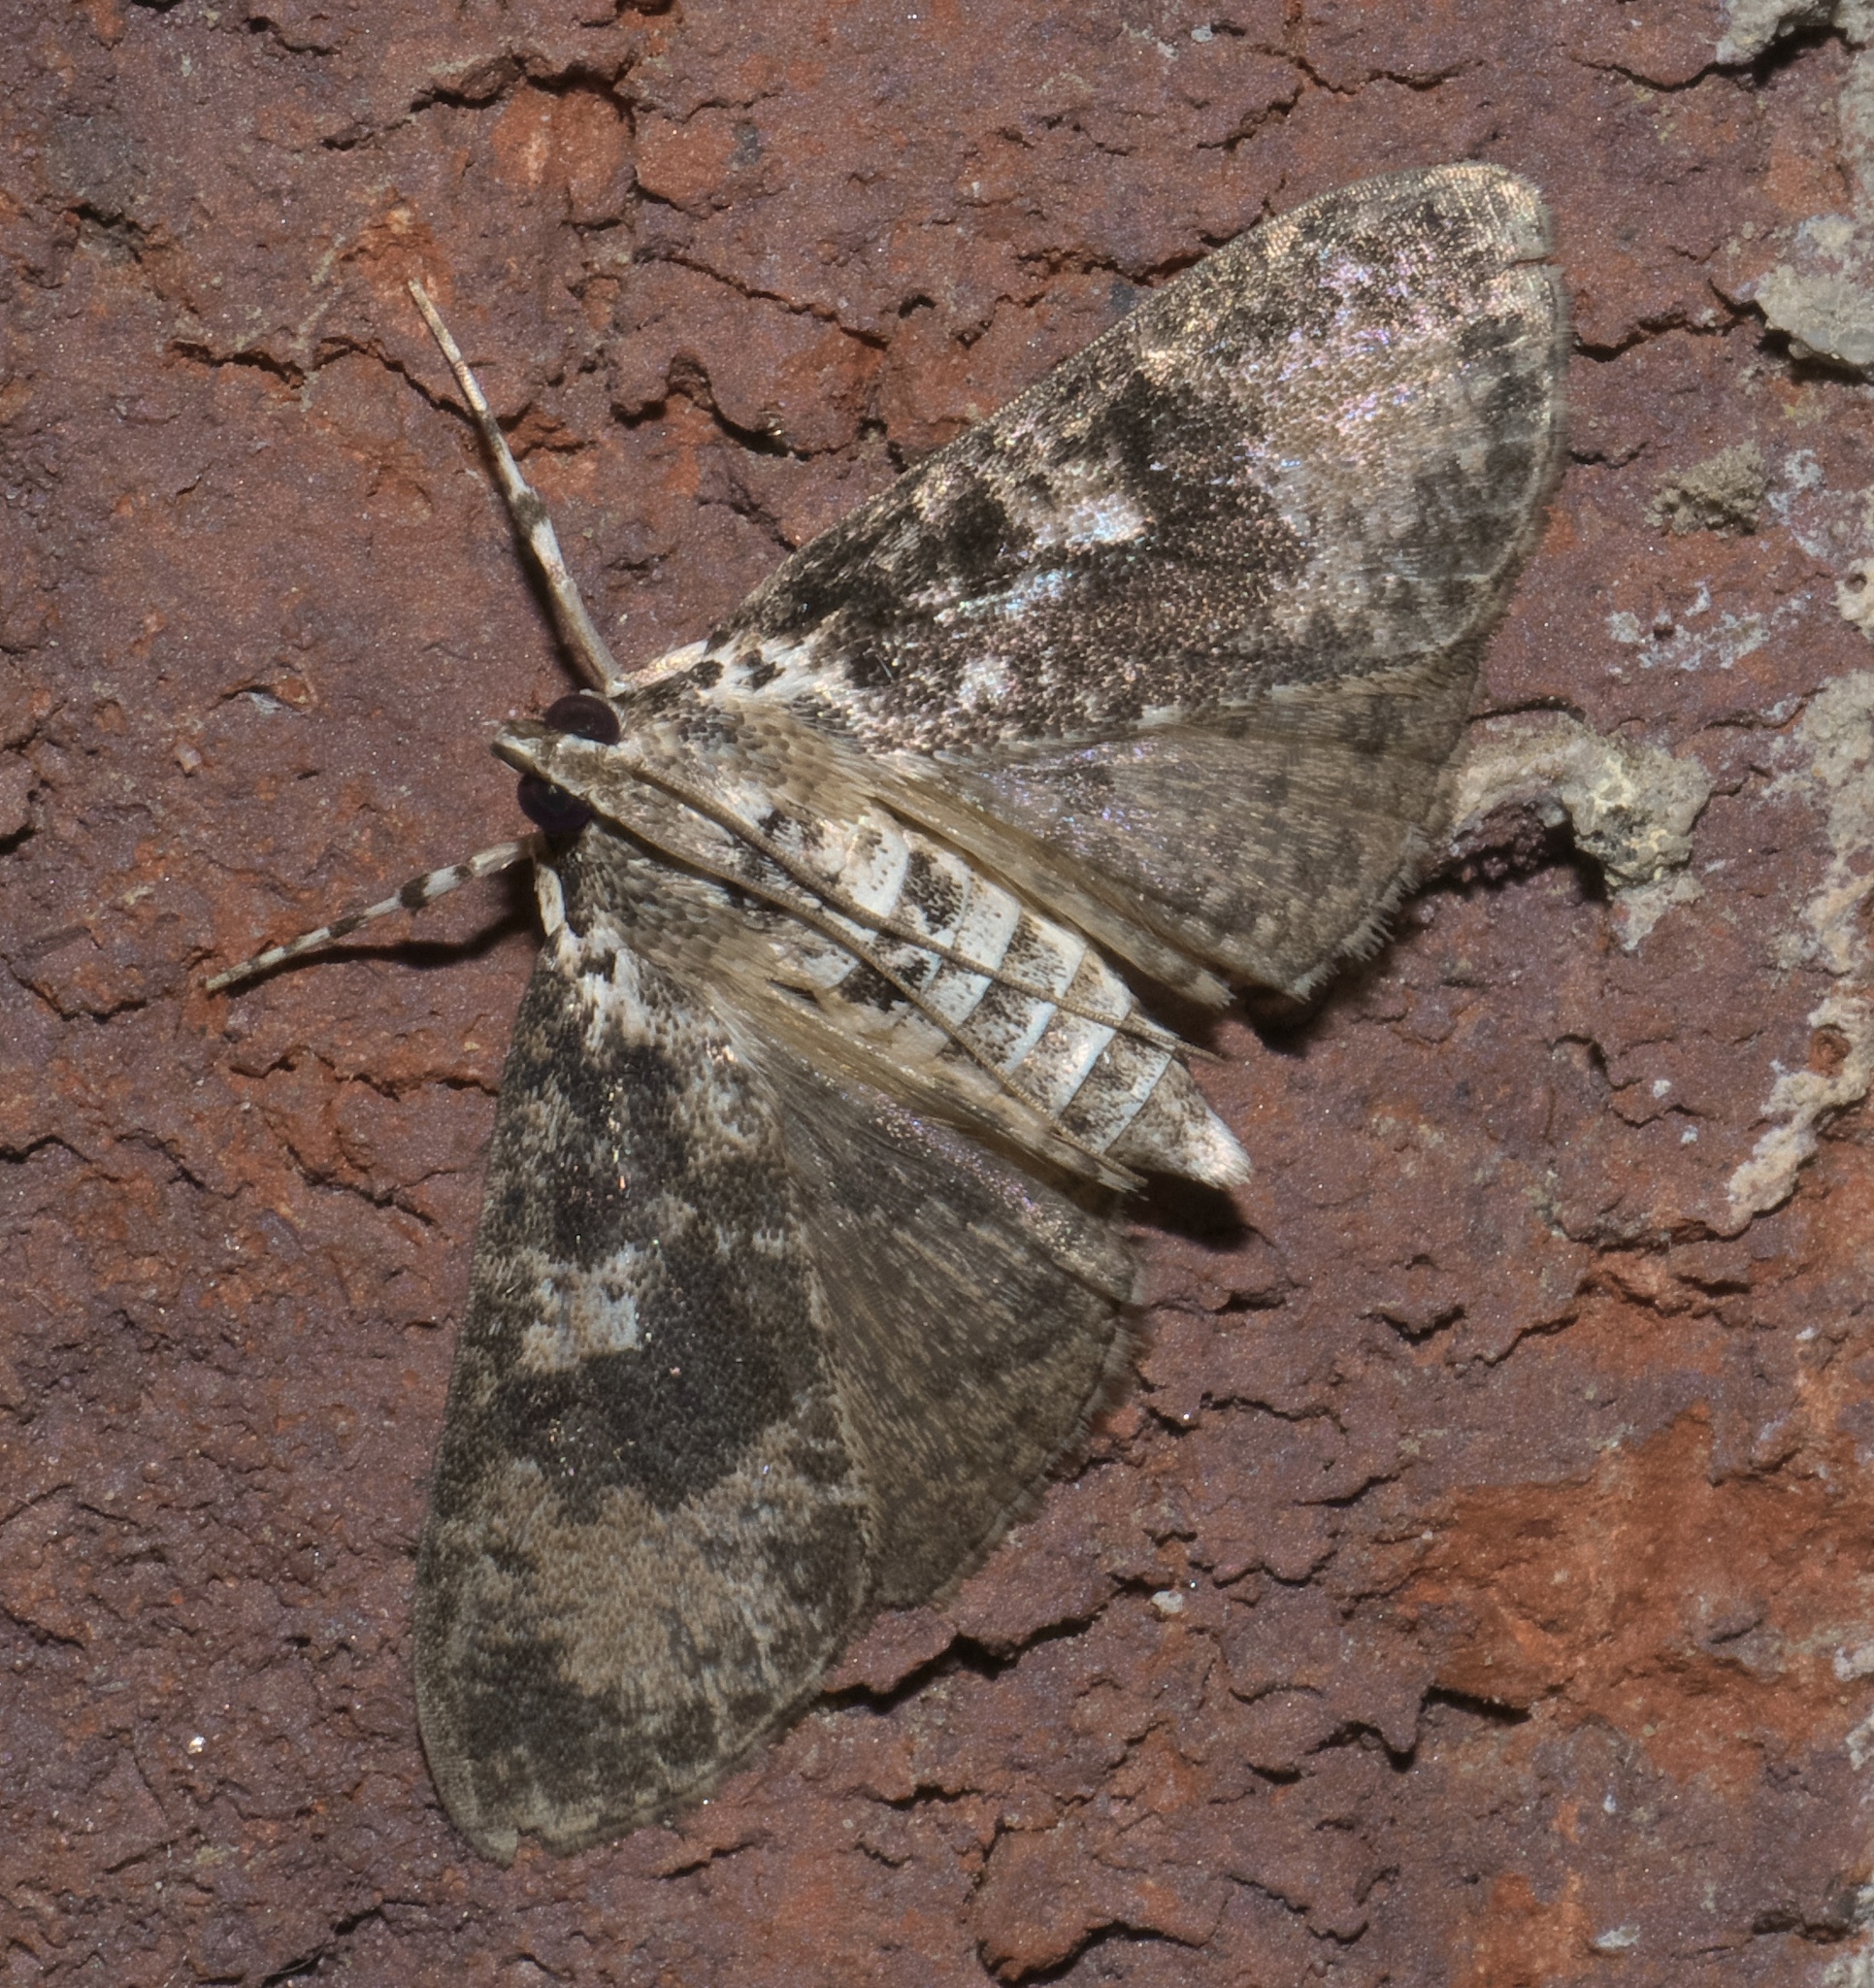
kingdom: Animalia
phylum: Arthropoda
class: Insecta
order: Lepidoptera
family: Crambidae
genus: Palpita
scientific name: Palpita magniferalis
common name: Splendid palpita moth
